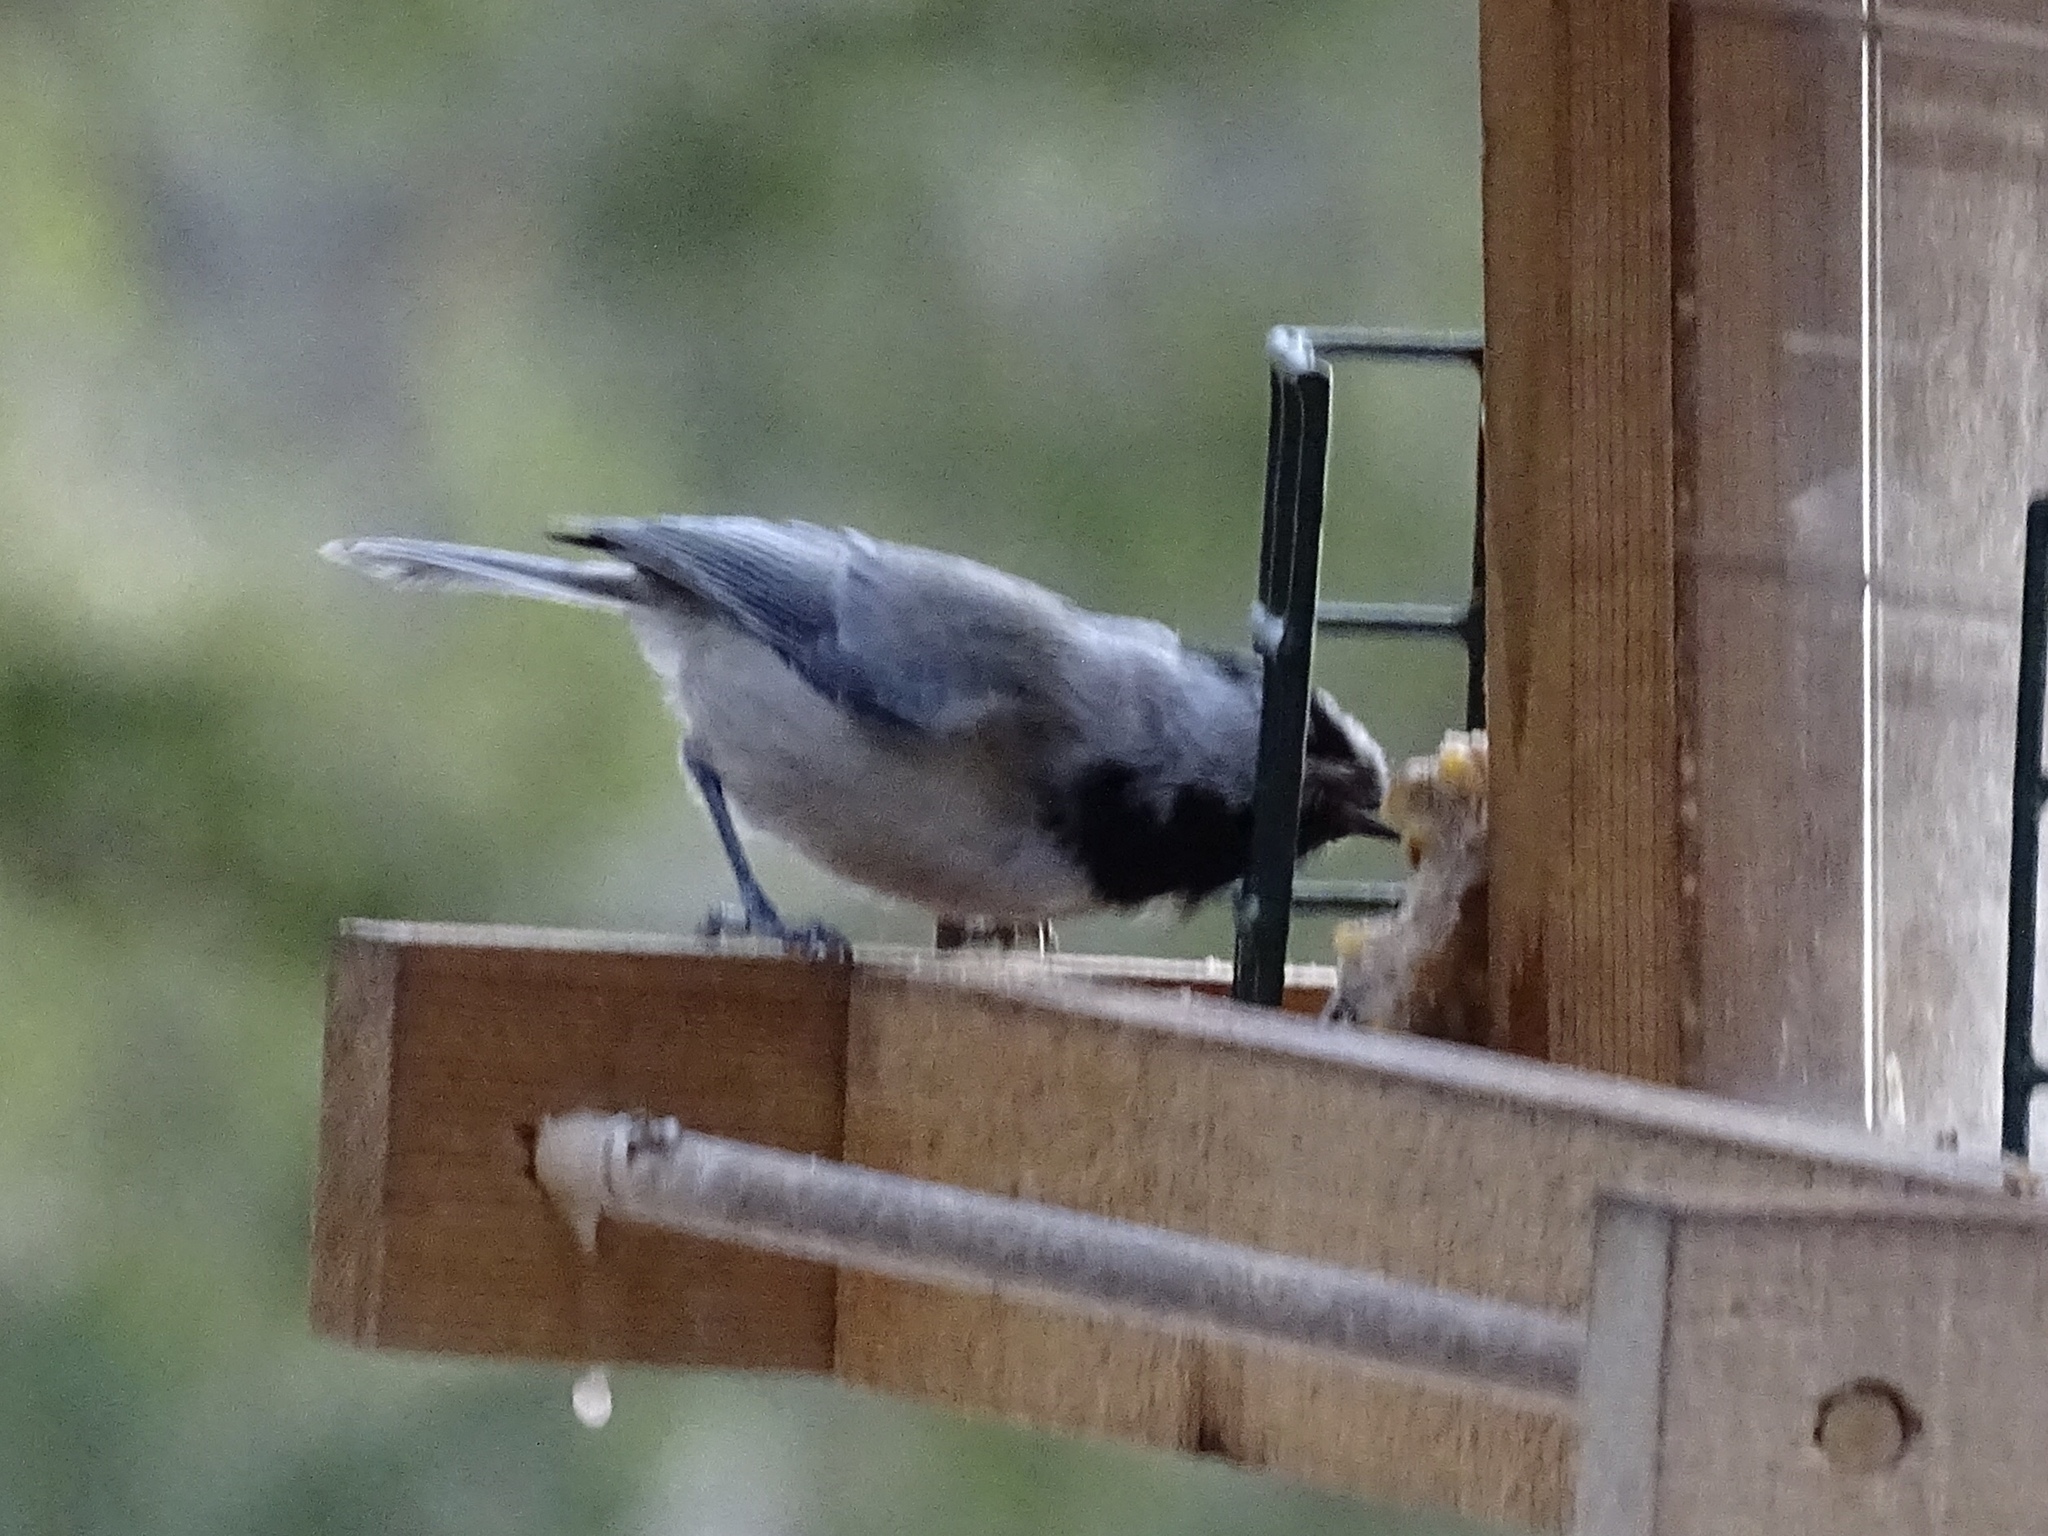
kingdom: Animalia
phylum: Chordata
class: Aves
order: Passeriformes
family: Paridae
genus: Poecile
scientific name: Poecile gambeli
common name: Mountain chickadee
